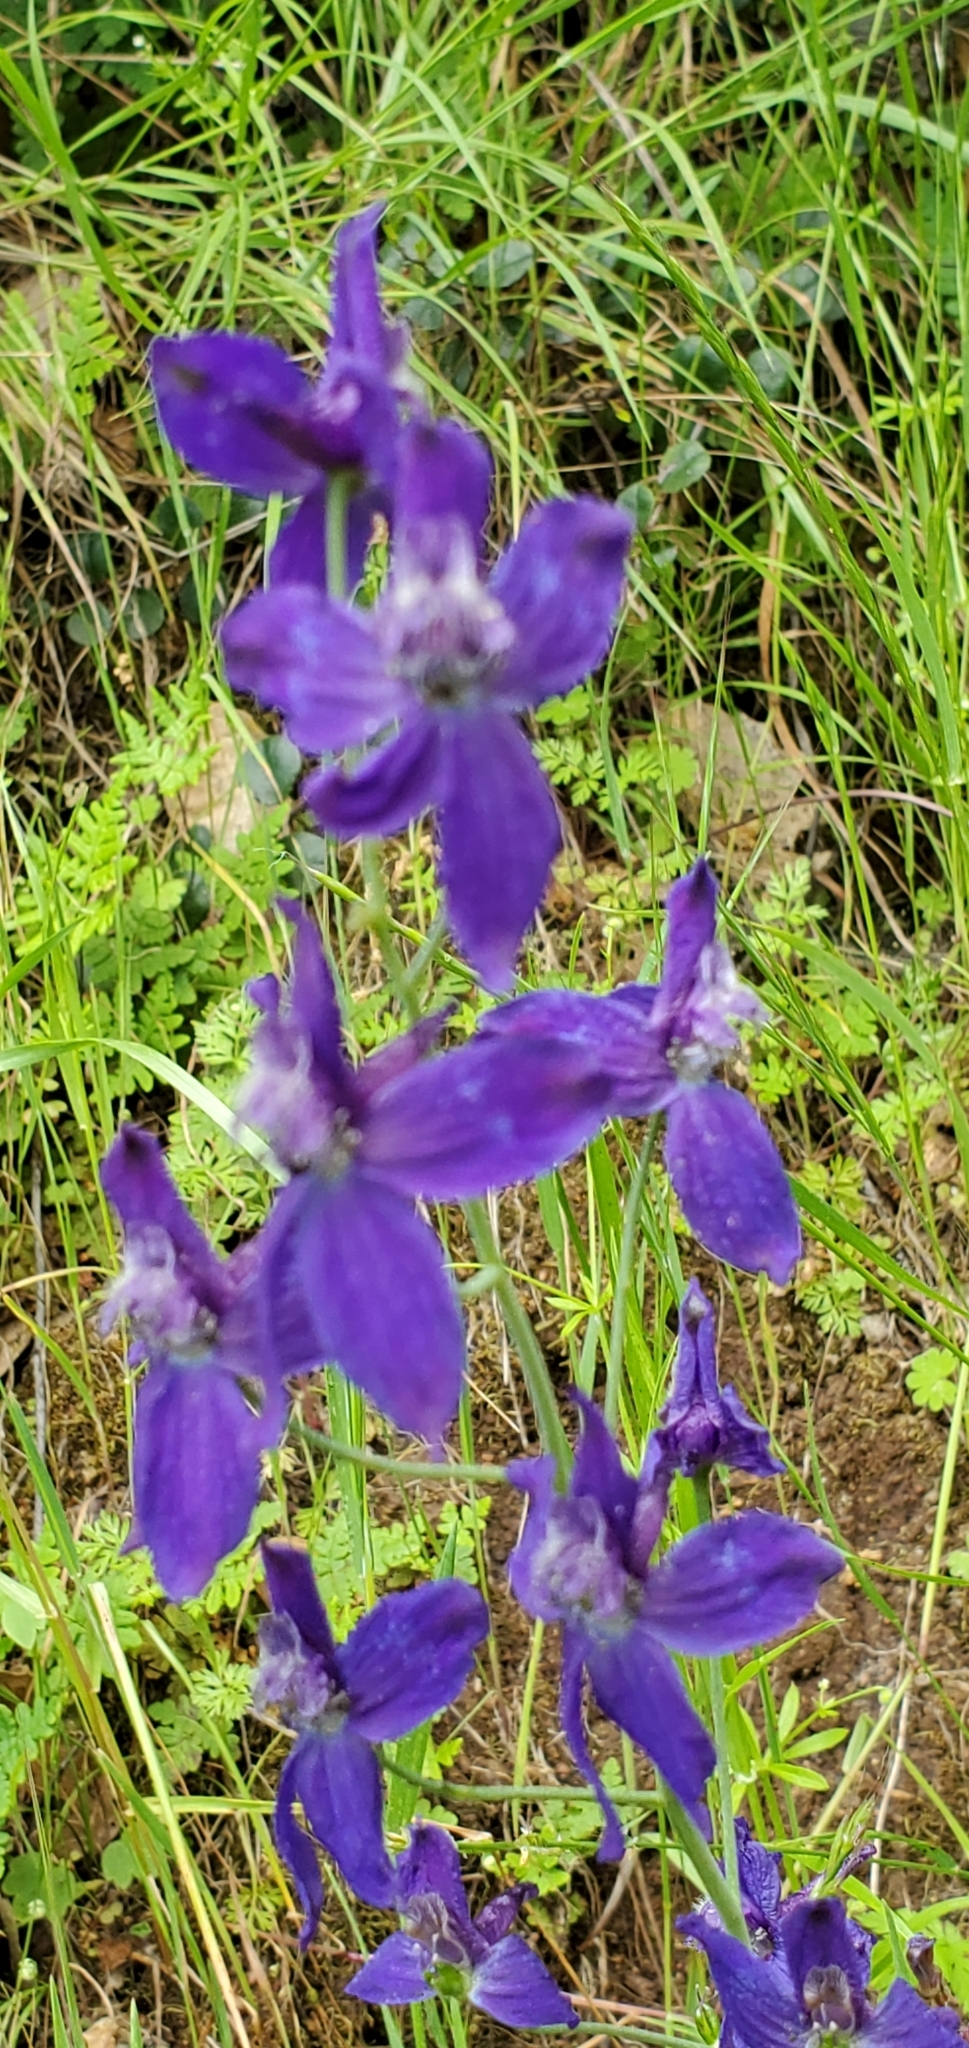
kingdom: Plantae
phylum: Tracheophyta
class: Magnoliopsida
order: Ranunculales
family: Ranunculaceae
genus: Delphinium
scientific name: Delphinium patens
